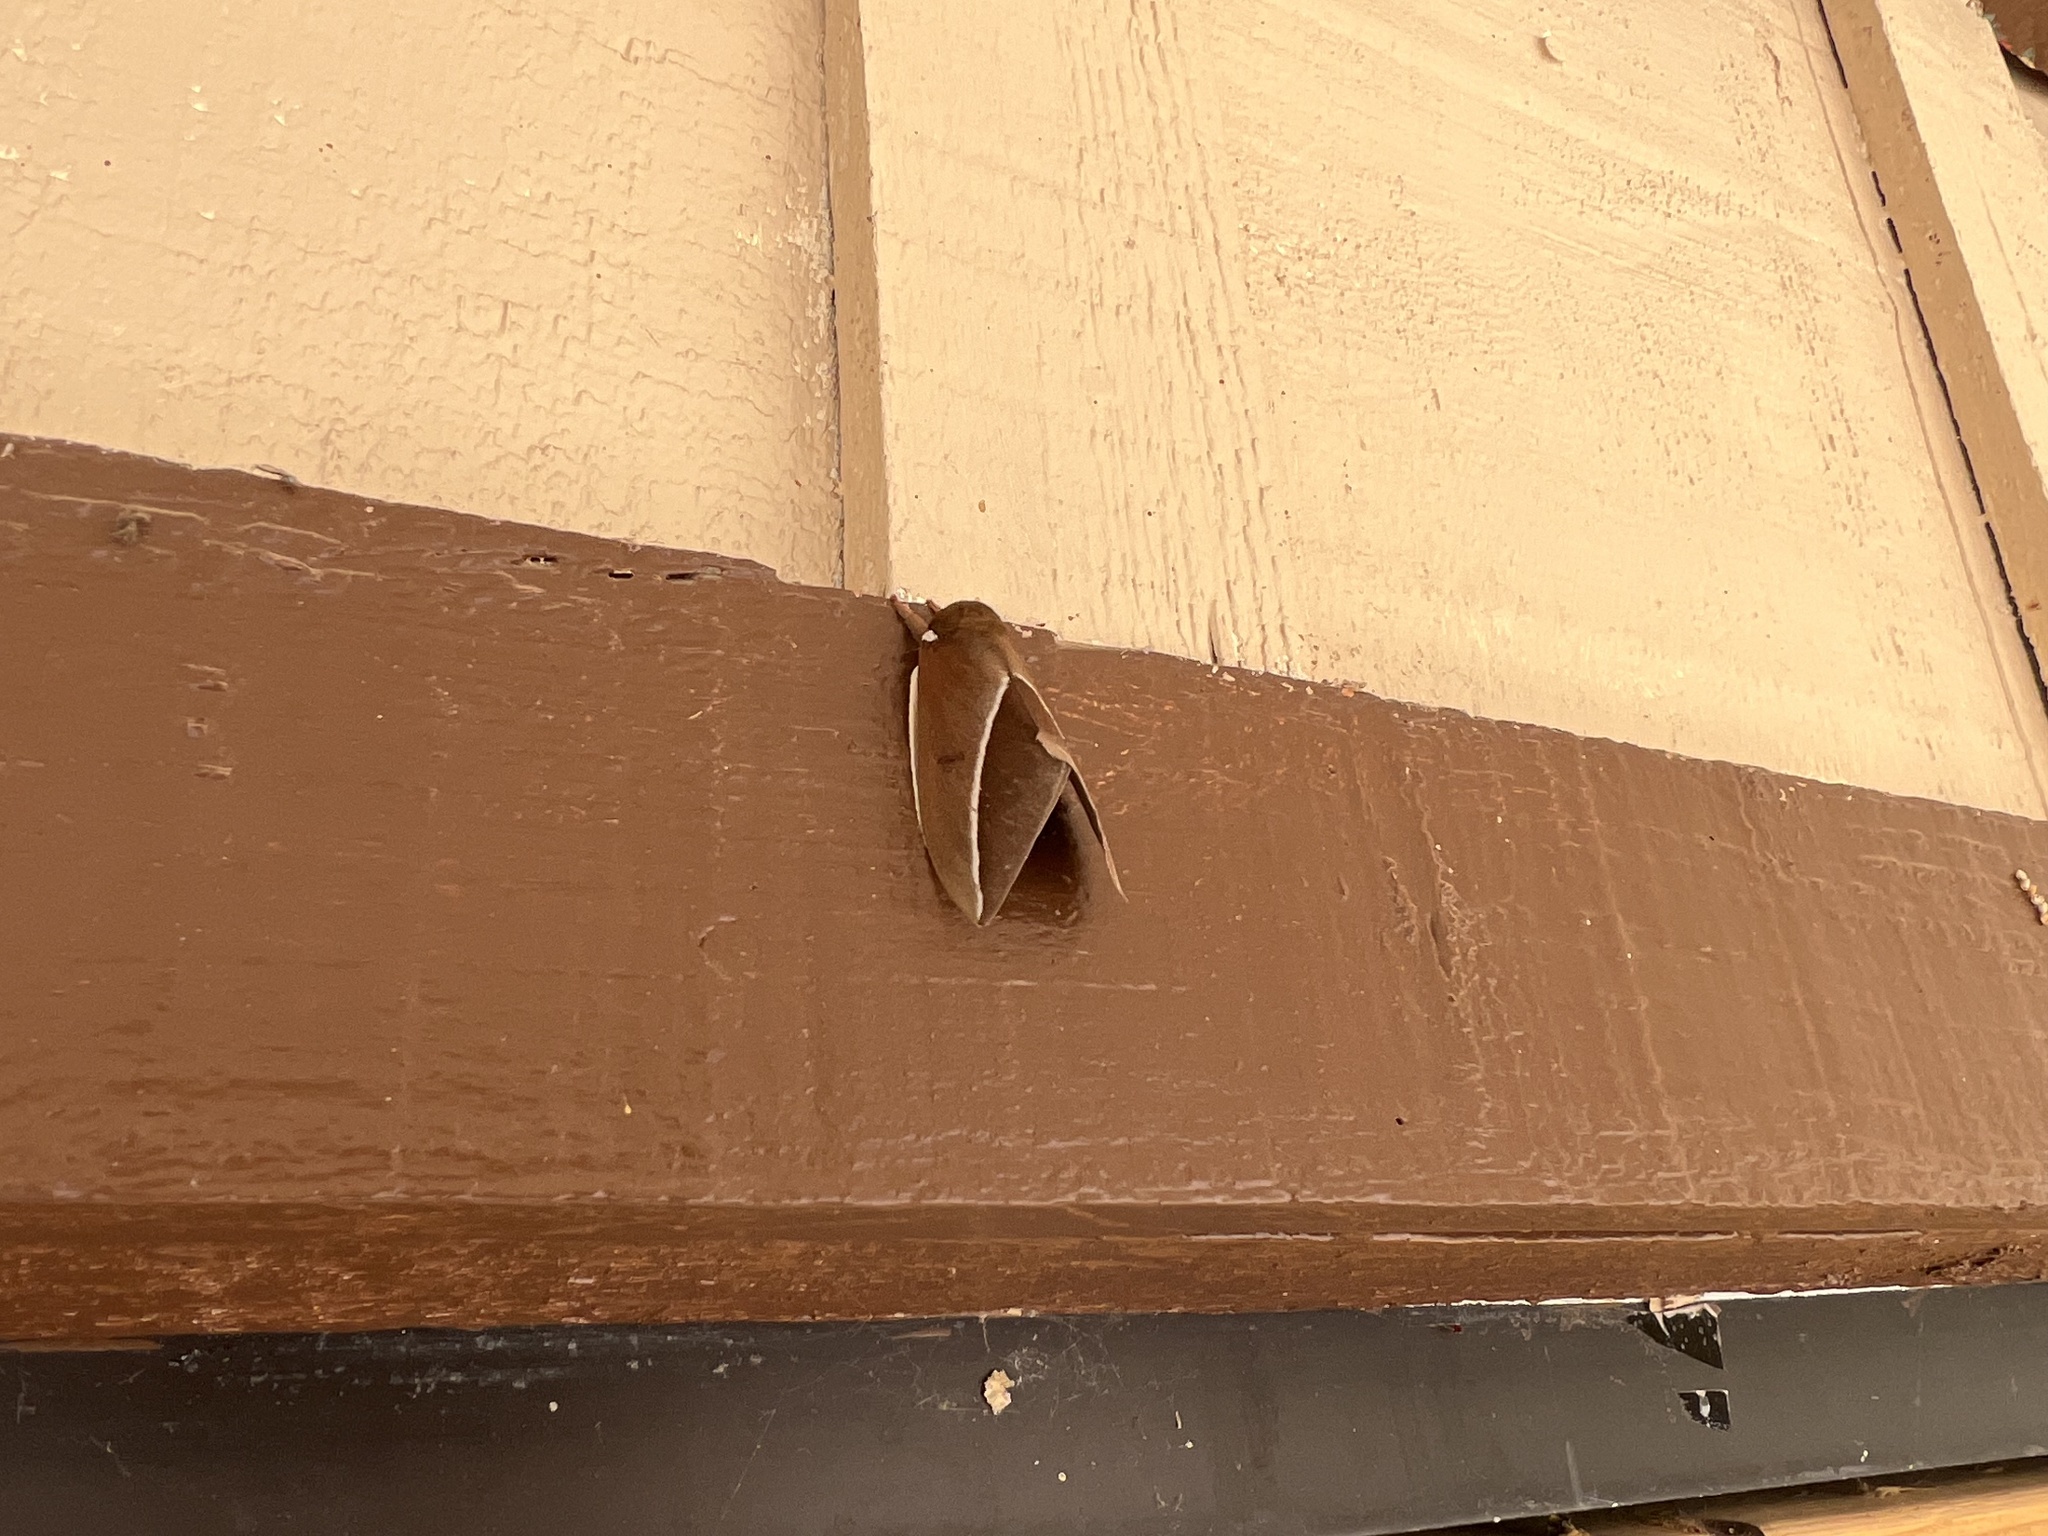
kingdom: Animalia
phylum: Arthropoda
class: Insecta
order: Lepidoptera
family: Saturniidae
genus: Automeris
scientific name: Automeris zephyria
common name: Zephyr eyed silkmoth
